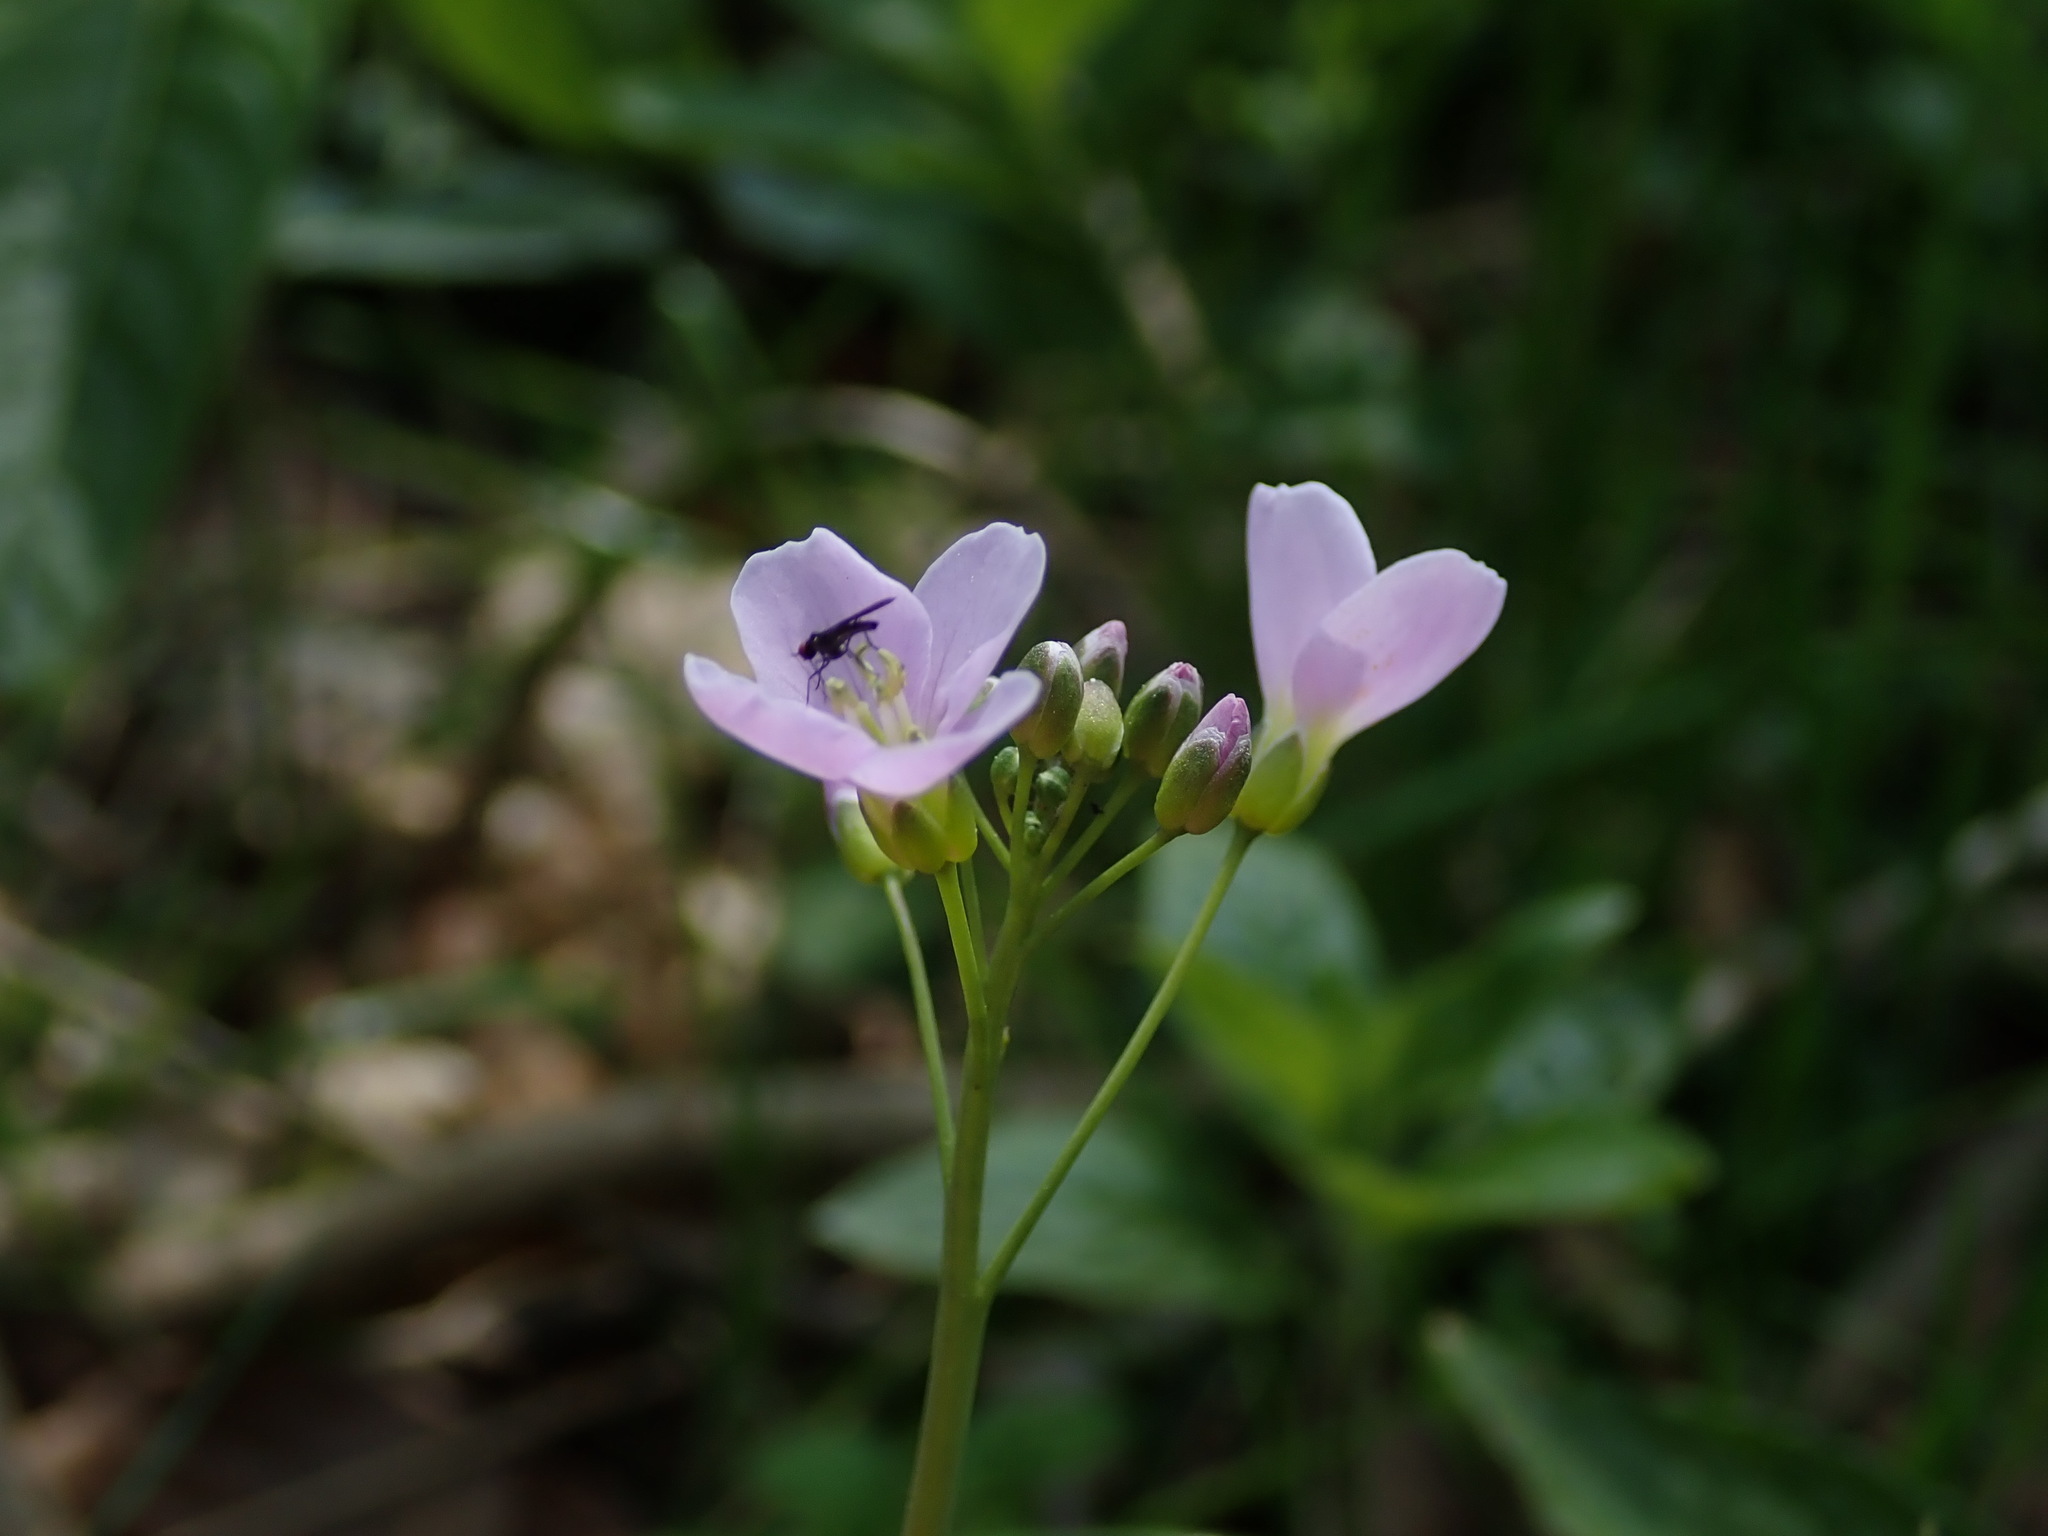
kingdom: Plantae
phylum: Tracheophyta
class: Magnoliopsida
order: Brassicales
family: Brassicaceae
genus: Cardamine
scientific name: Cardamine pratensis
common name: Cuckoo flower
